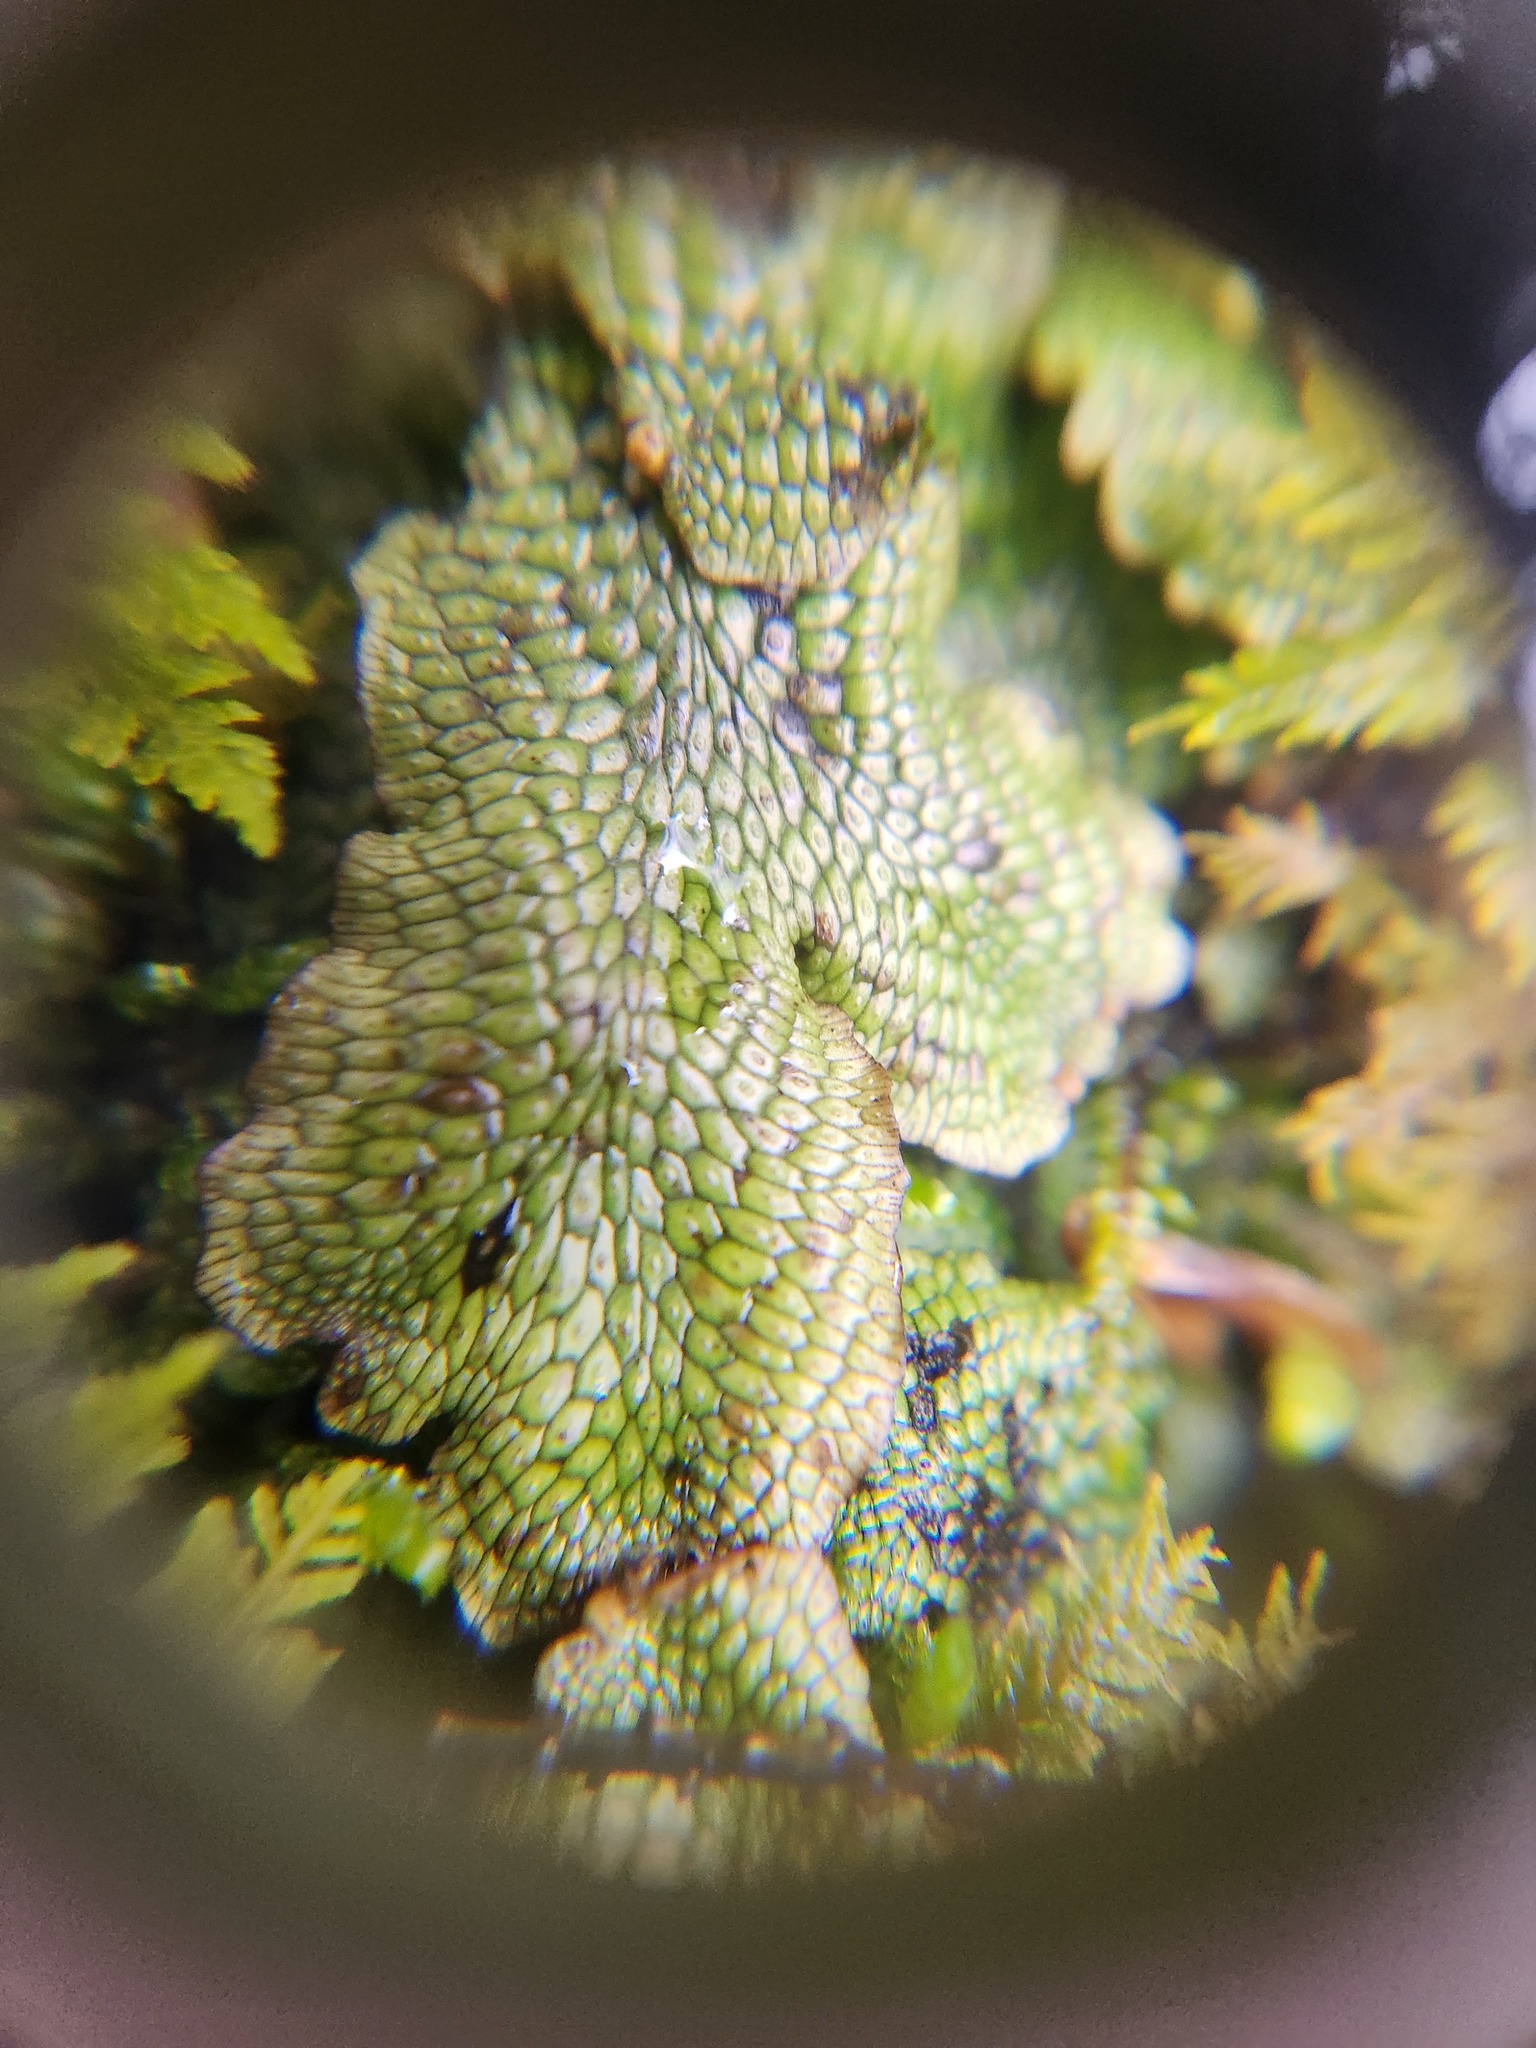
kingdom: Plantae
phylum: Marchantiophyta
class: Marchantiopsida
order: Marchantiales
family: Conocephalaceae
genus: Conocephalum
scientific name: Conocephalum salebrosum
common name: Cat-tongue liverwort
